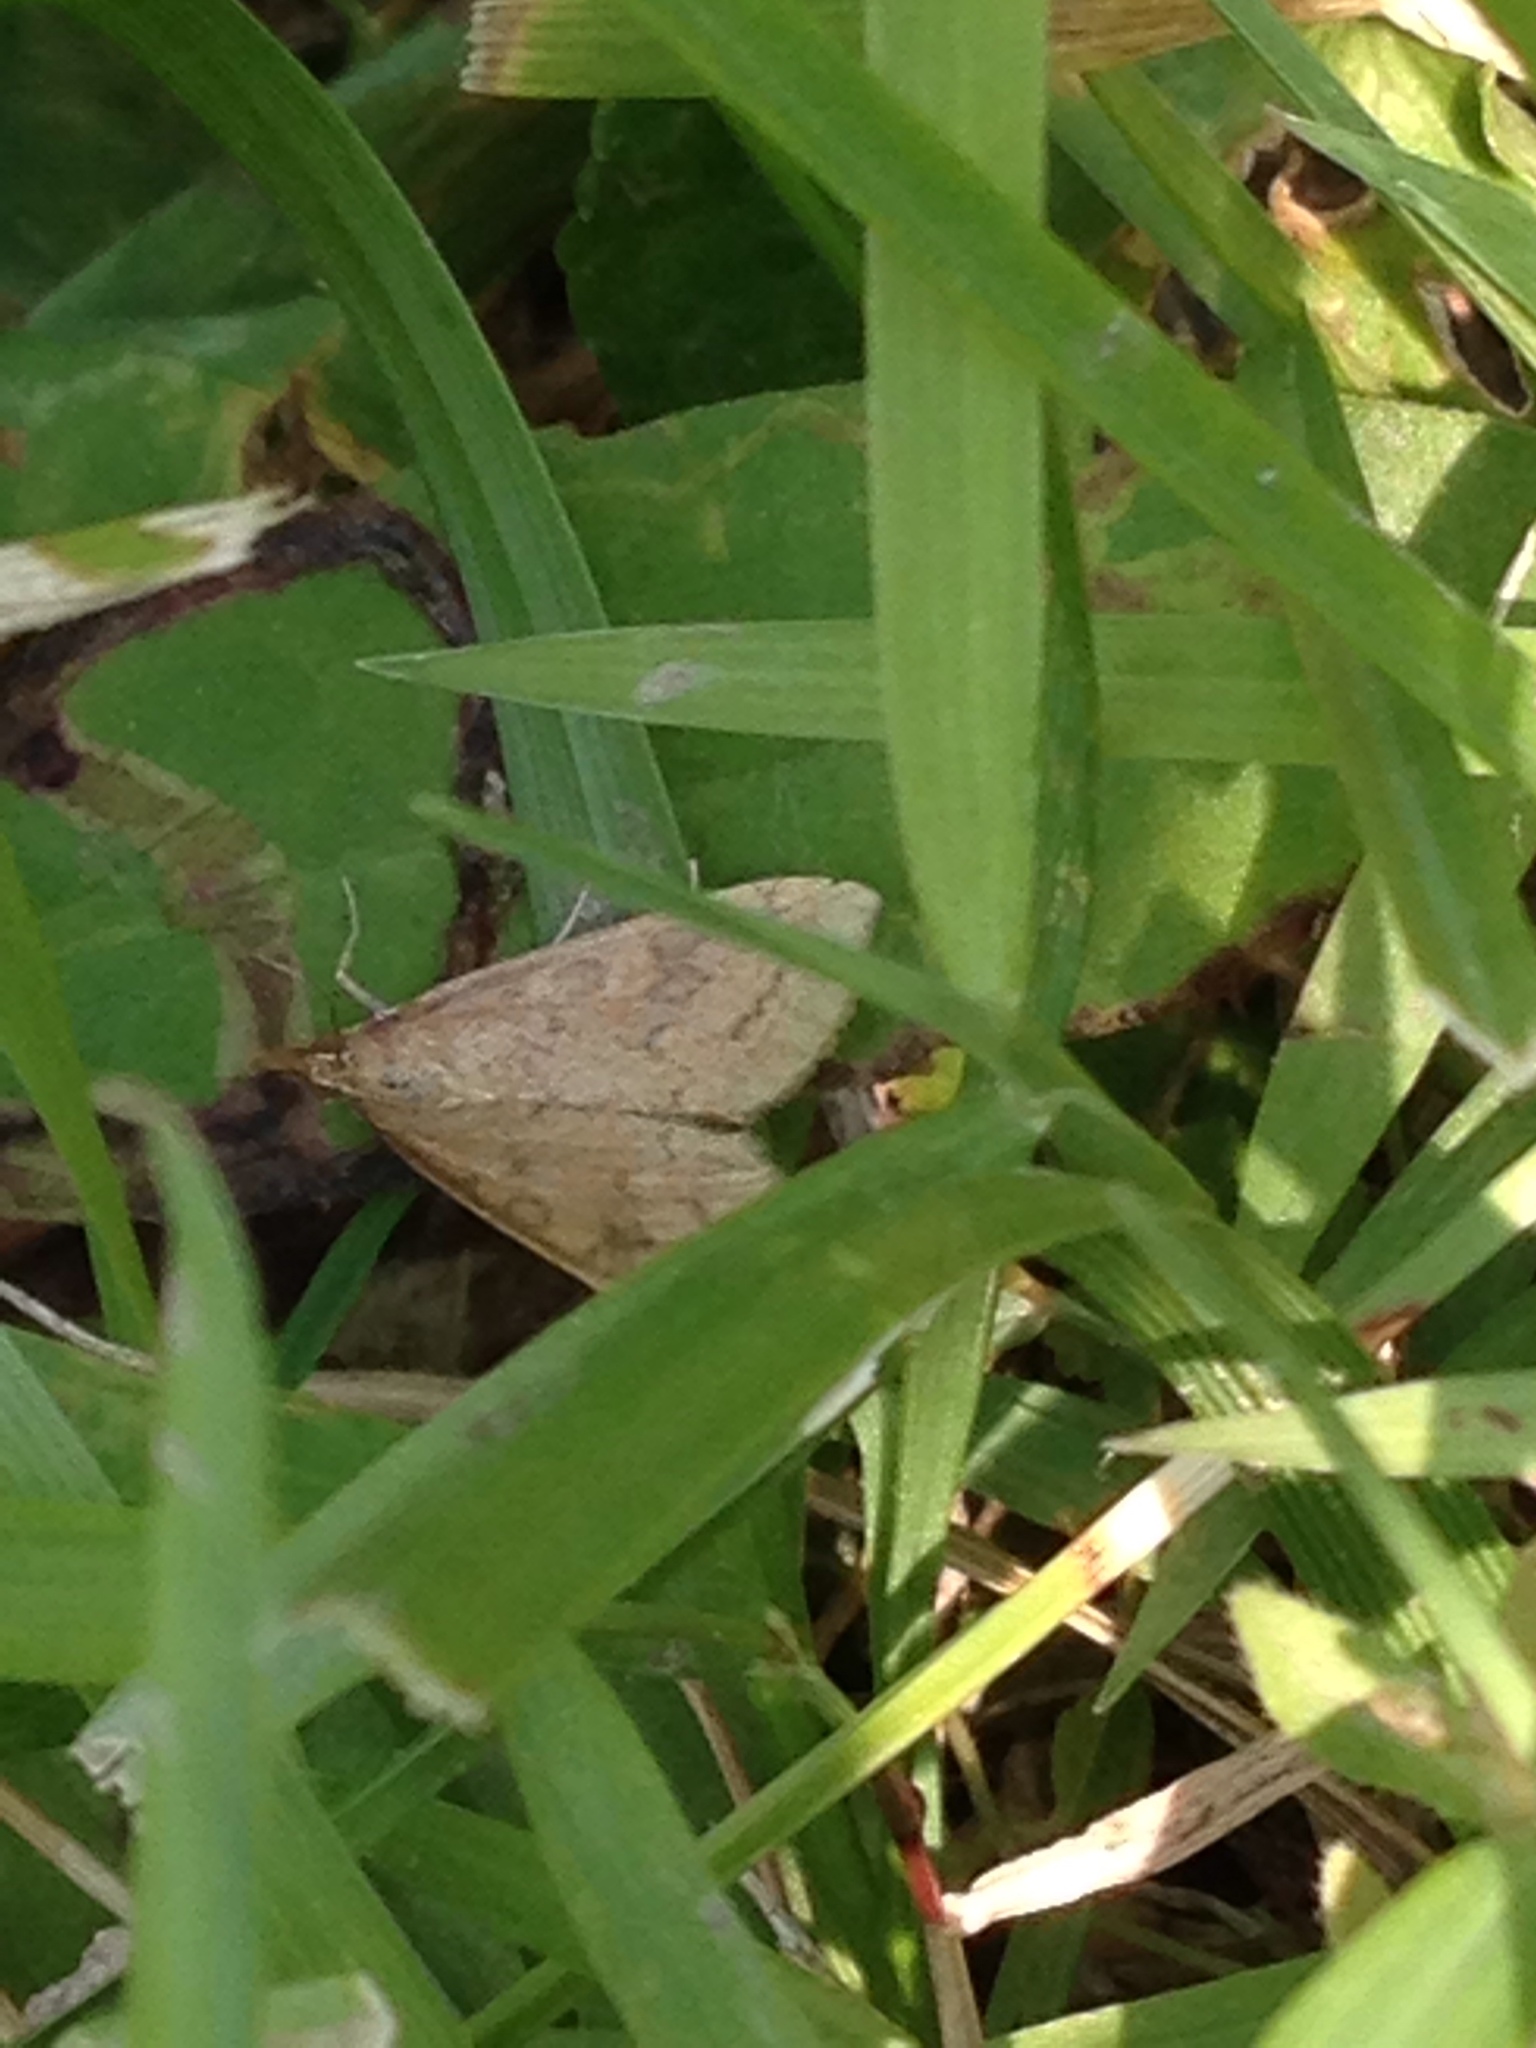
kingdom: Animalia
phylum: Arthropoda
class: Insecta
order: Lepidoptera
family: Crambidae
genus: Udea
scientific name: Udea rubigalis
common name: Celery leaftier moth
